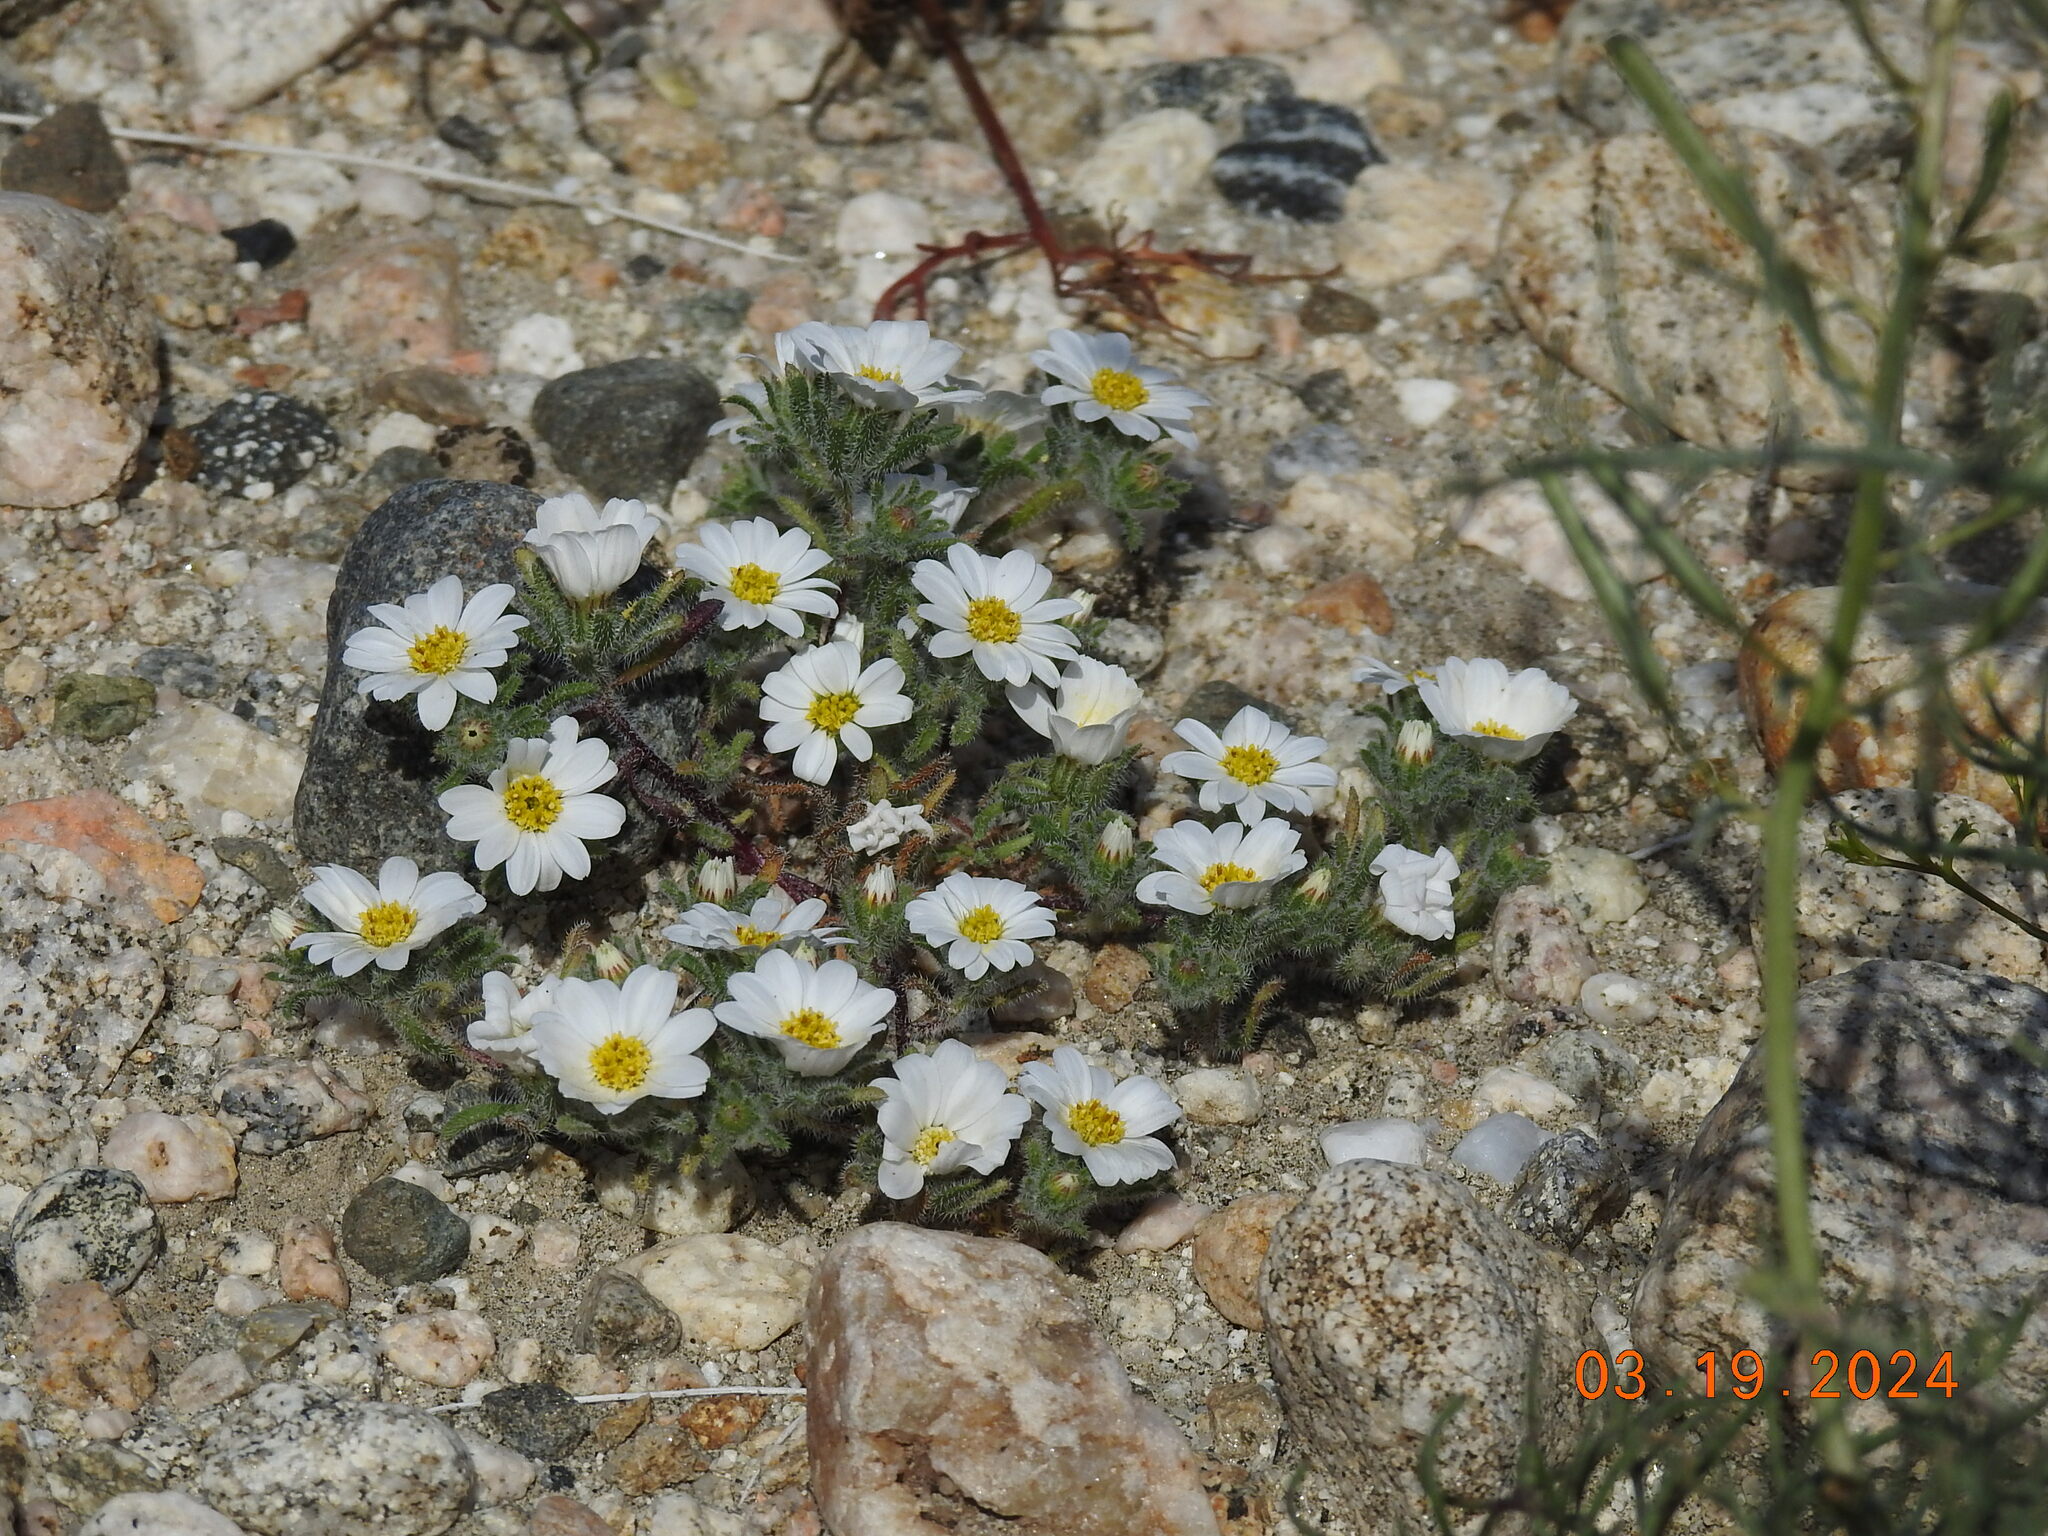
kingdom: Plantae
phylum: Tracheophyta
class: Magnoliopsida
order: Asterales
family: Asteraceae
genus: Monoptilon
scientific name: Monoptilon bellioides
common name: Bristly desertstar
